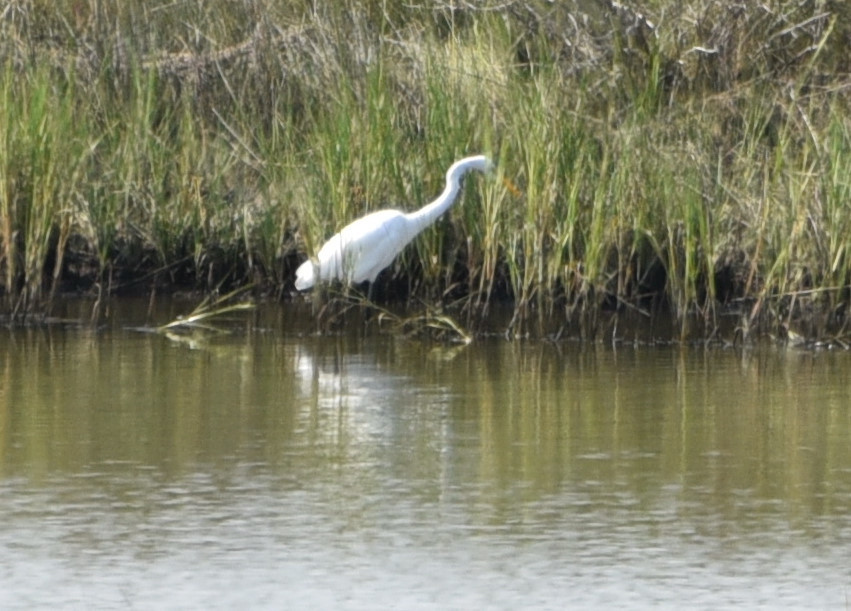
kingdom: Animalia
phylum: Chordata
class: Aves
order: Pelecaniformes
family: Ardeidae
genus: Ardea
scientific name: Ardea alba
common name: Great egret
